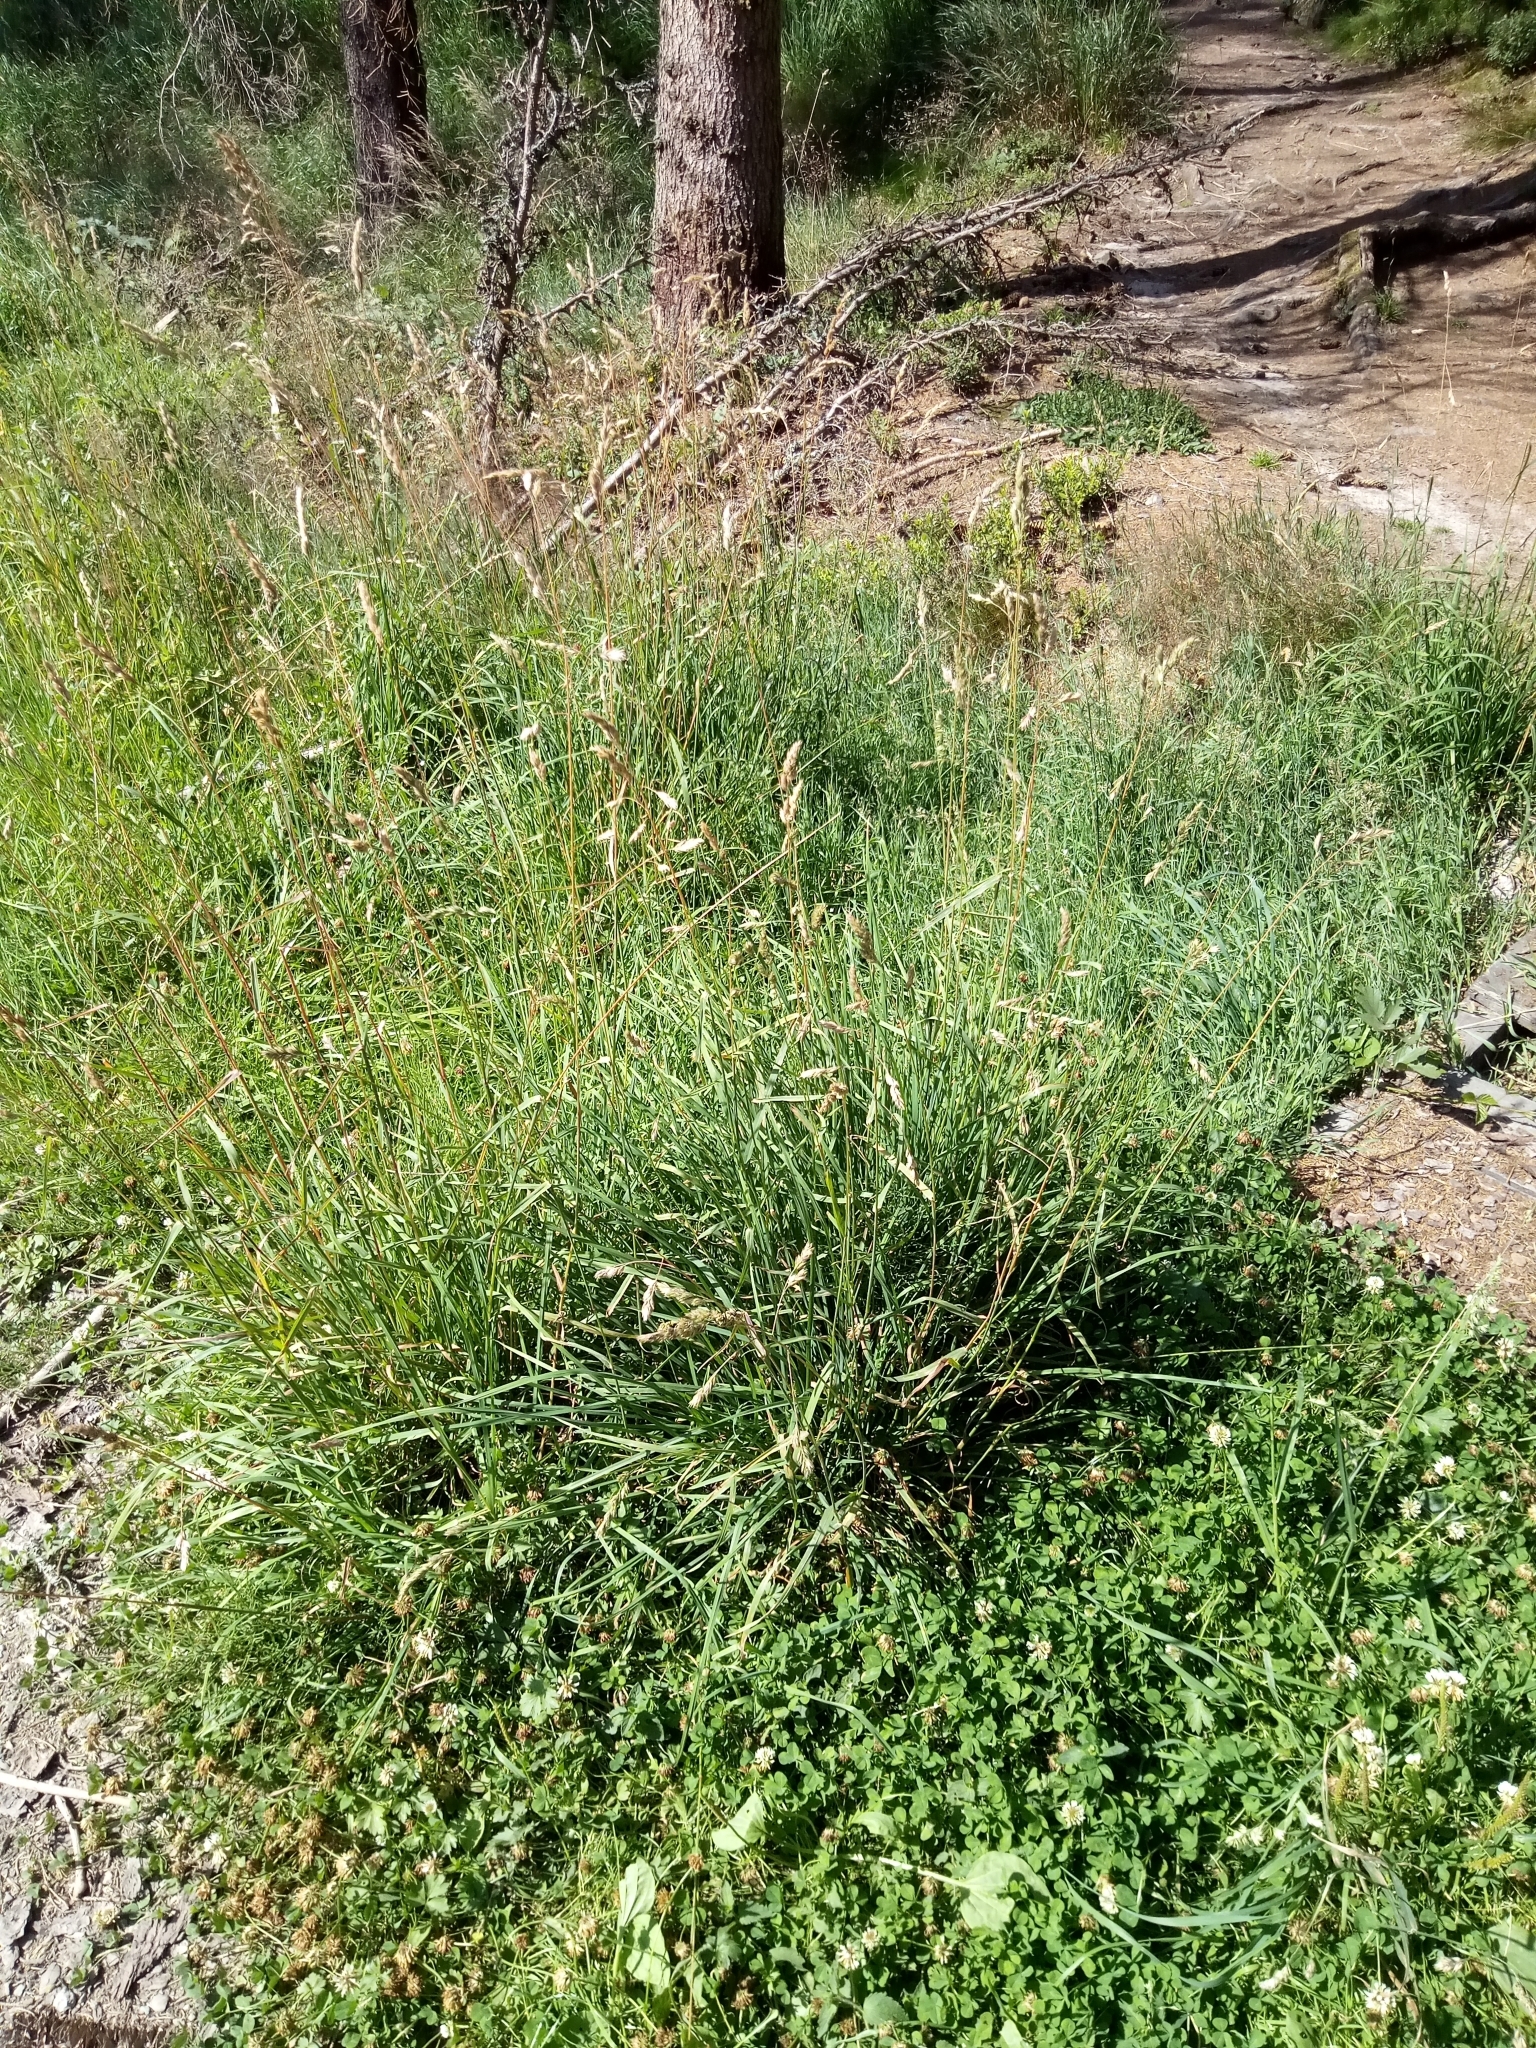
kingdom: Plantae
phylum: Tracheophyta
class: Liliopsida
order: Poales
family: Poaceae
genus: Dactylis
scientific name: Dactylis glomerata
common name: Orchardgrass
